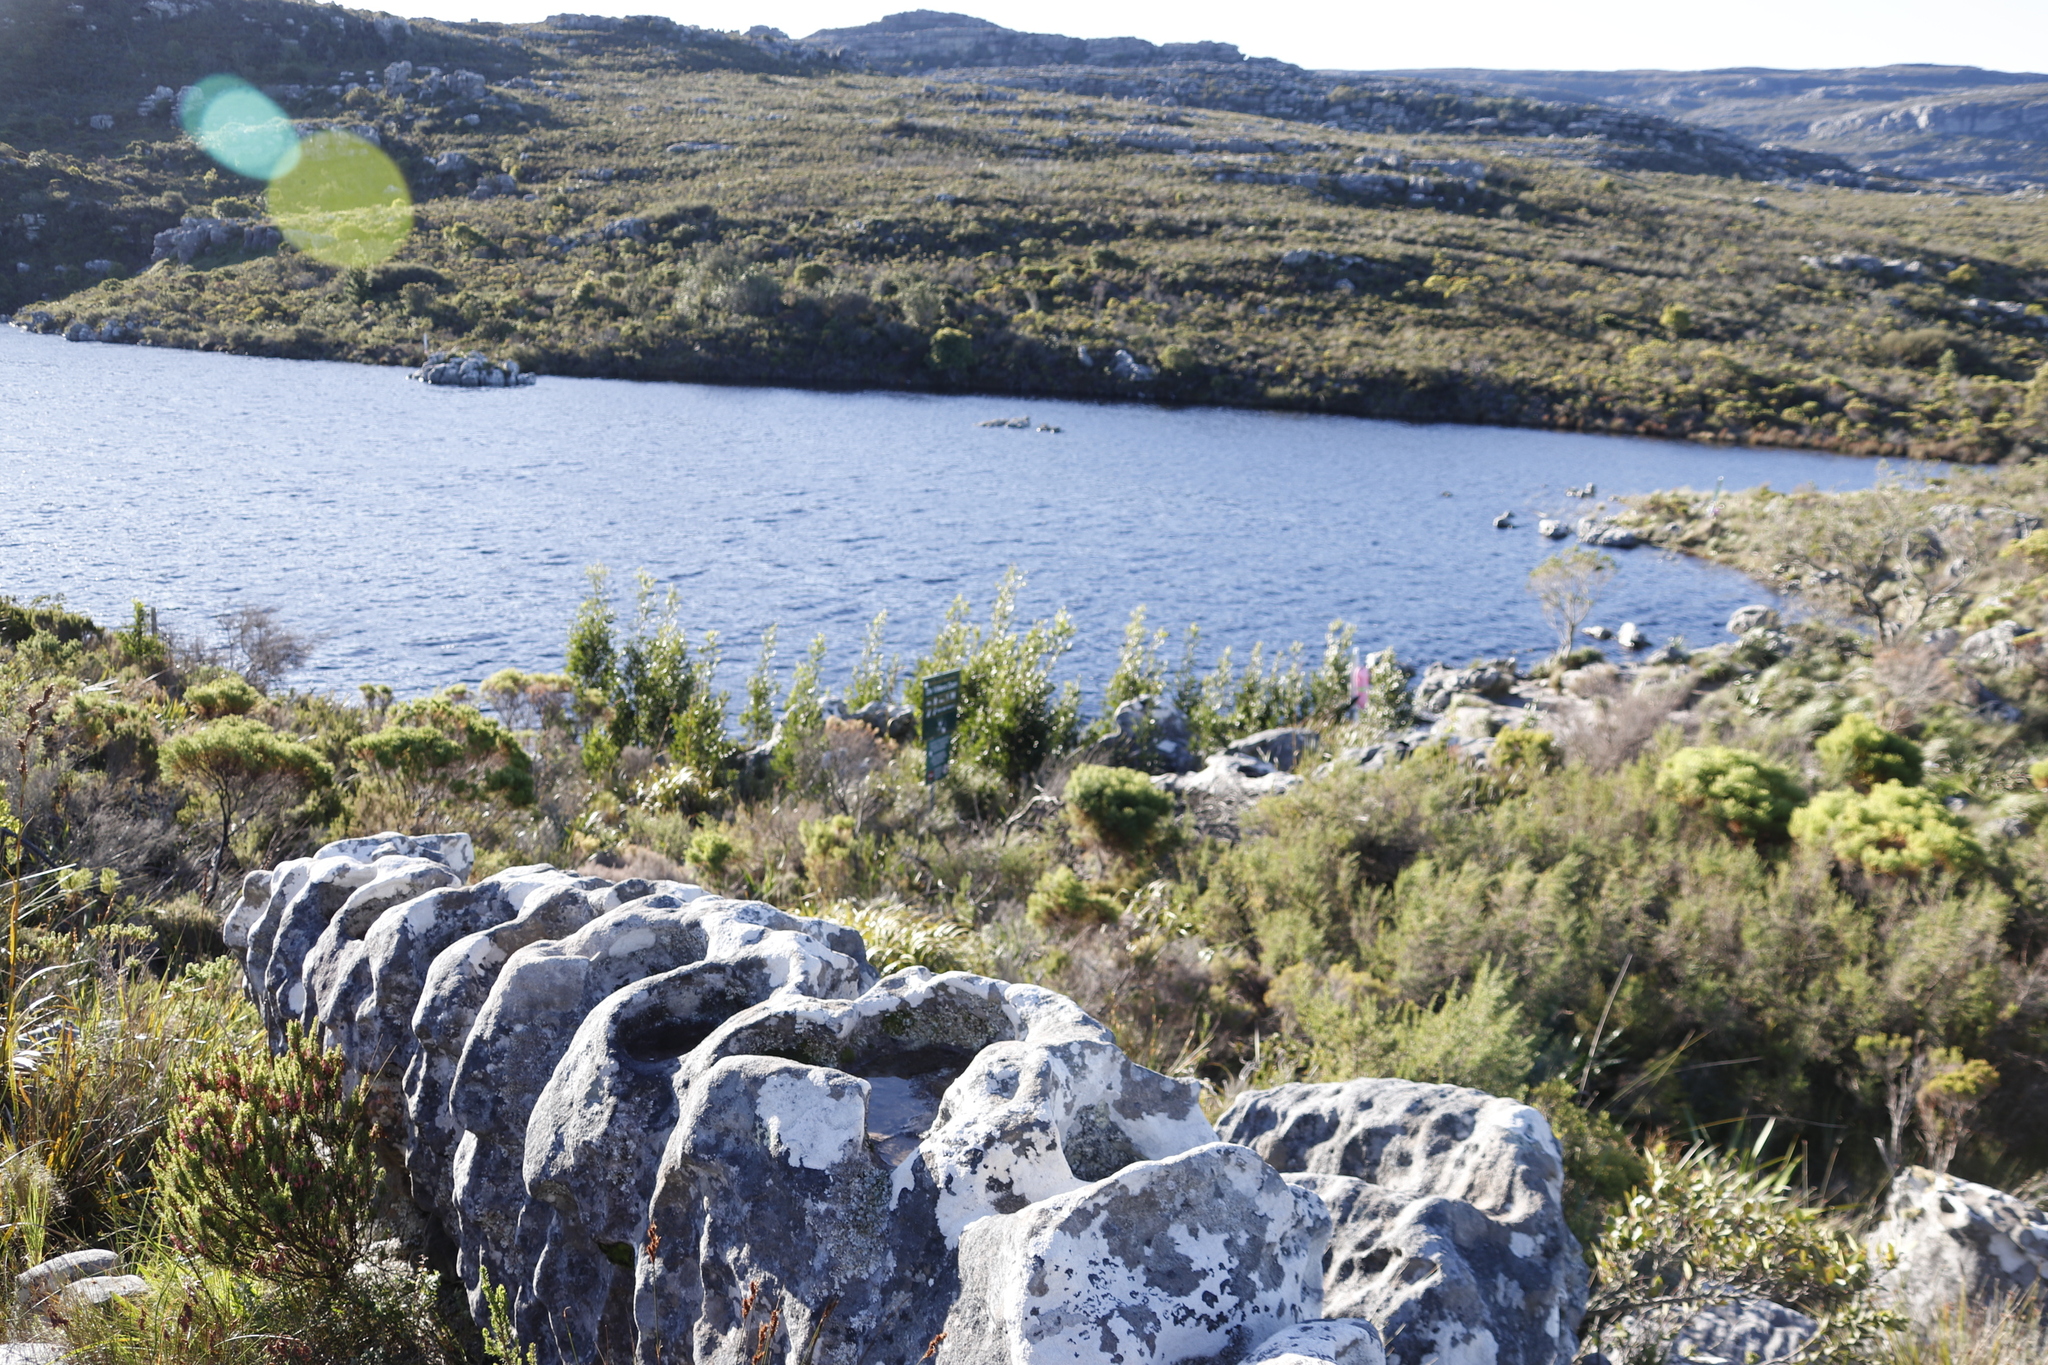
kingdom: Plantae
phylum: Tracheophyta
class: Magnoliopsida
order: Fabales
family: Fabaceae
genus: Acacia
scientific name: Acacia melanoxylon
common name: Blackwood
